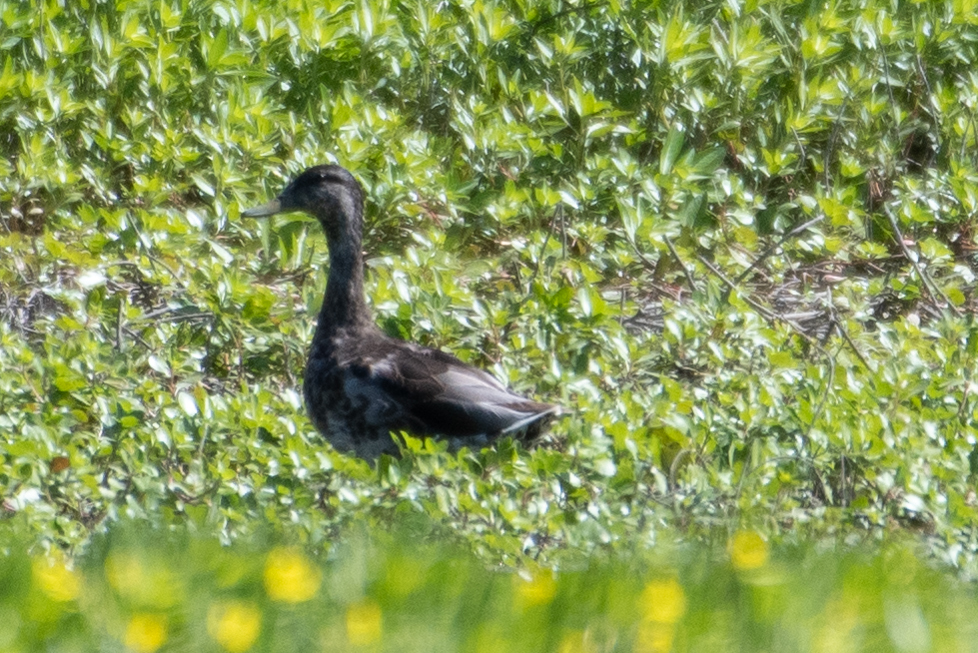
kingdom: Animalia
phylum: Chordata
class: Aves
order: Anseriformes
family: Anatidae
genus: Anas
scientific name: Anas platyrhynchos
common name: Mallard
